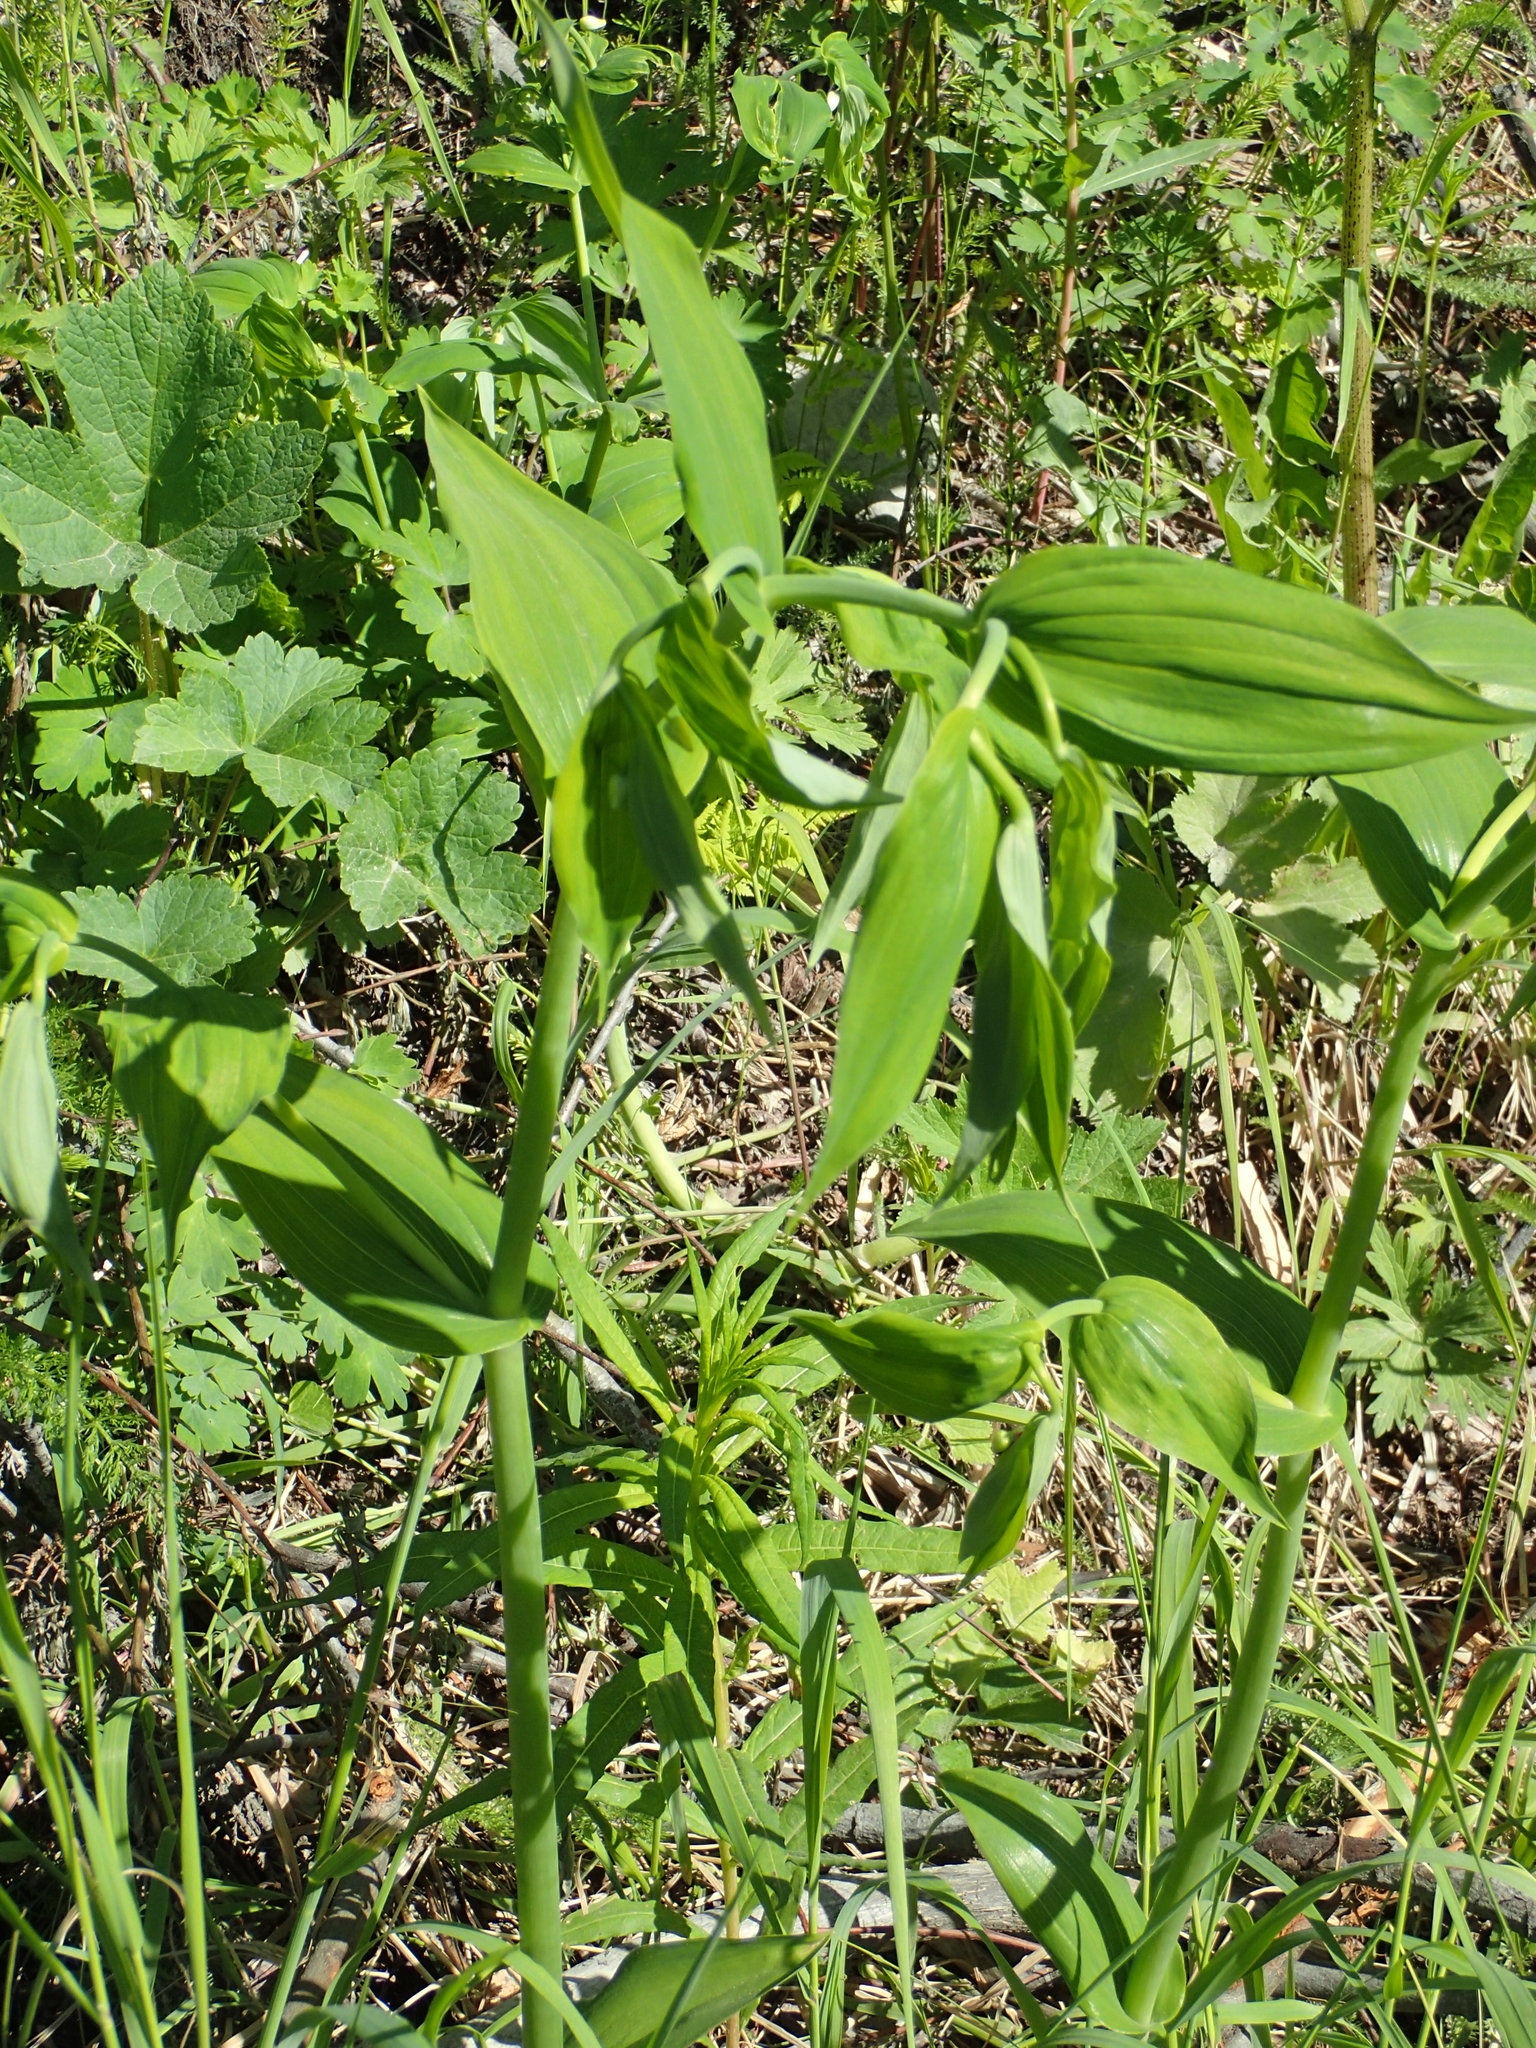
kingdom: Plantae
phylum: Tracheophyta
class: Liliopsida
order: Liliales
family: Liliaceae
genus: Streptopus
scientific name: Streptopus amplexifolius
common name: Clasp twisted stalk
